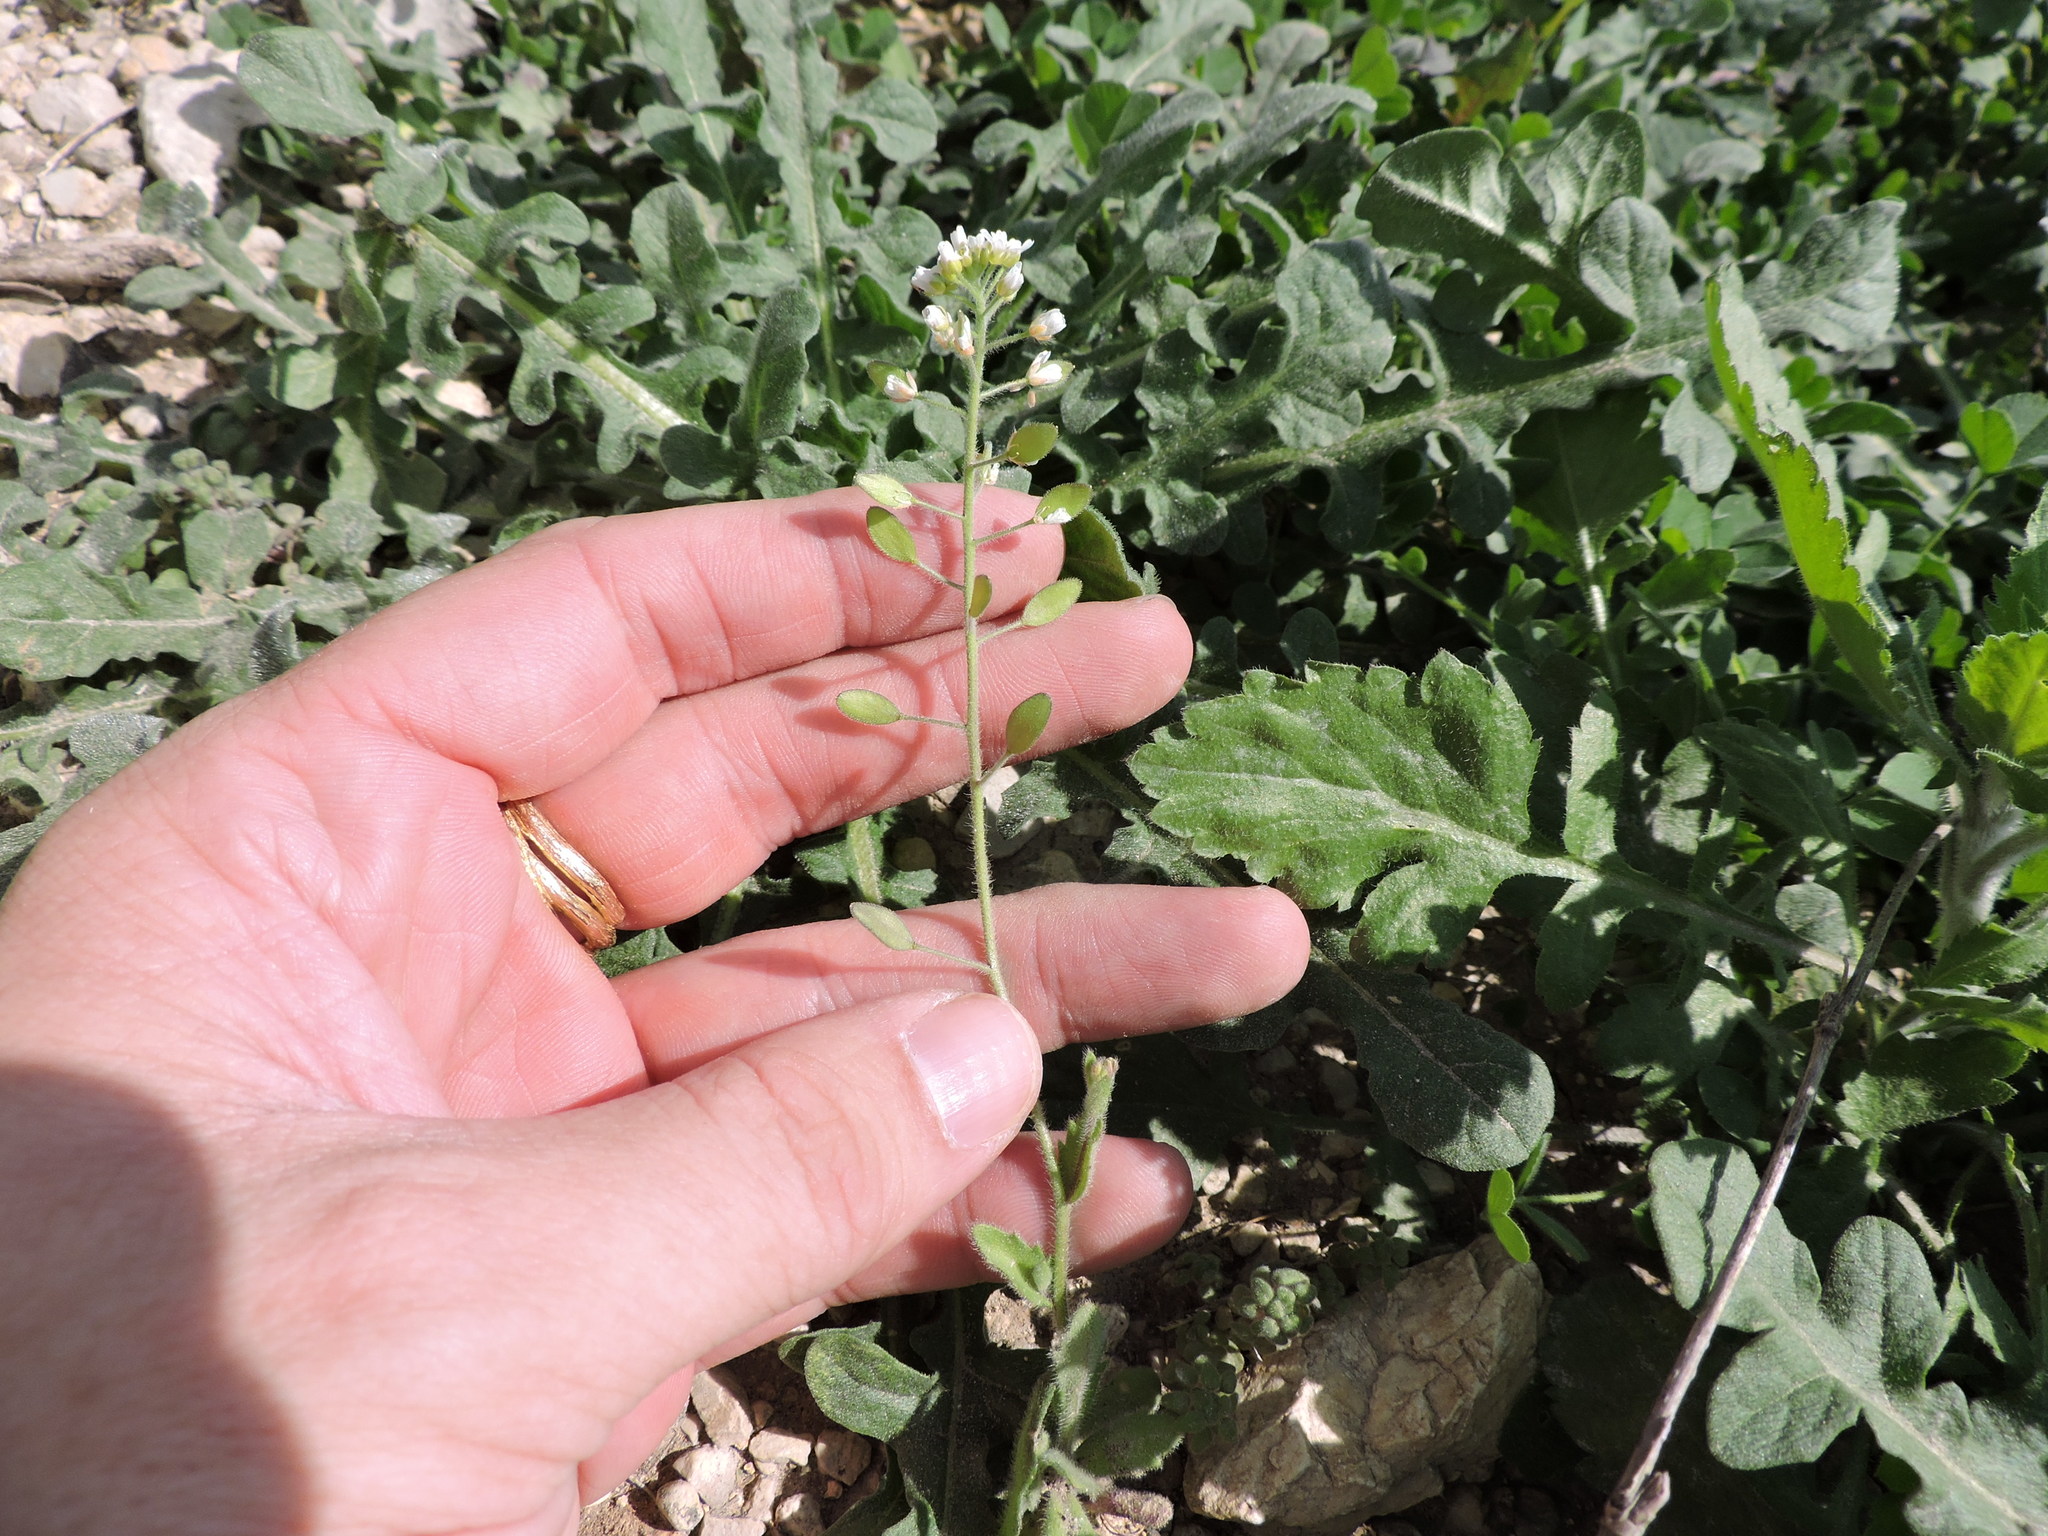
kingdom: Plantae
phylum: Tracheophyta
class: Magnoliopsida
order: Brassicales
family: Brassicaceae
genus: Tomostima
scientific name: Tomostima platycarpa
